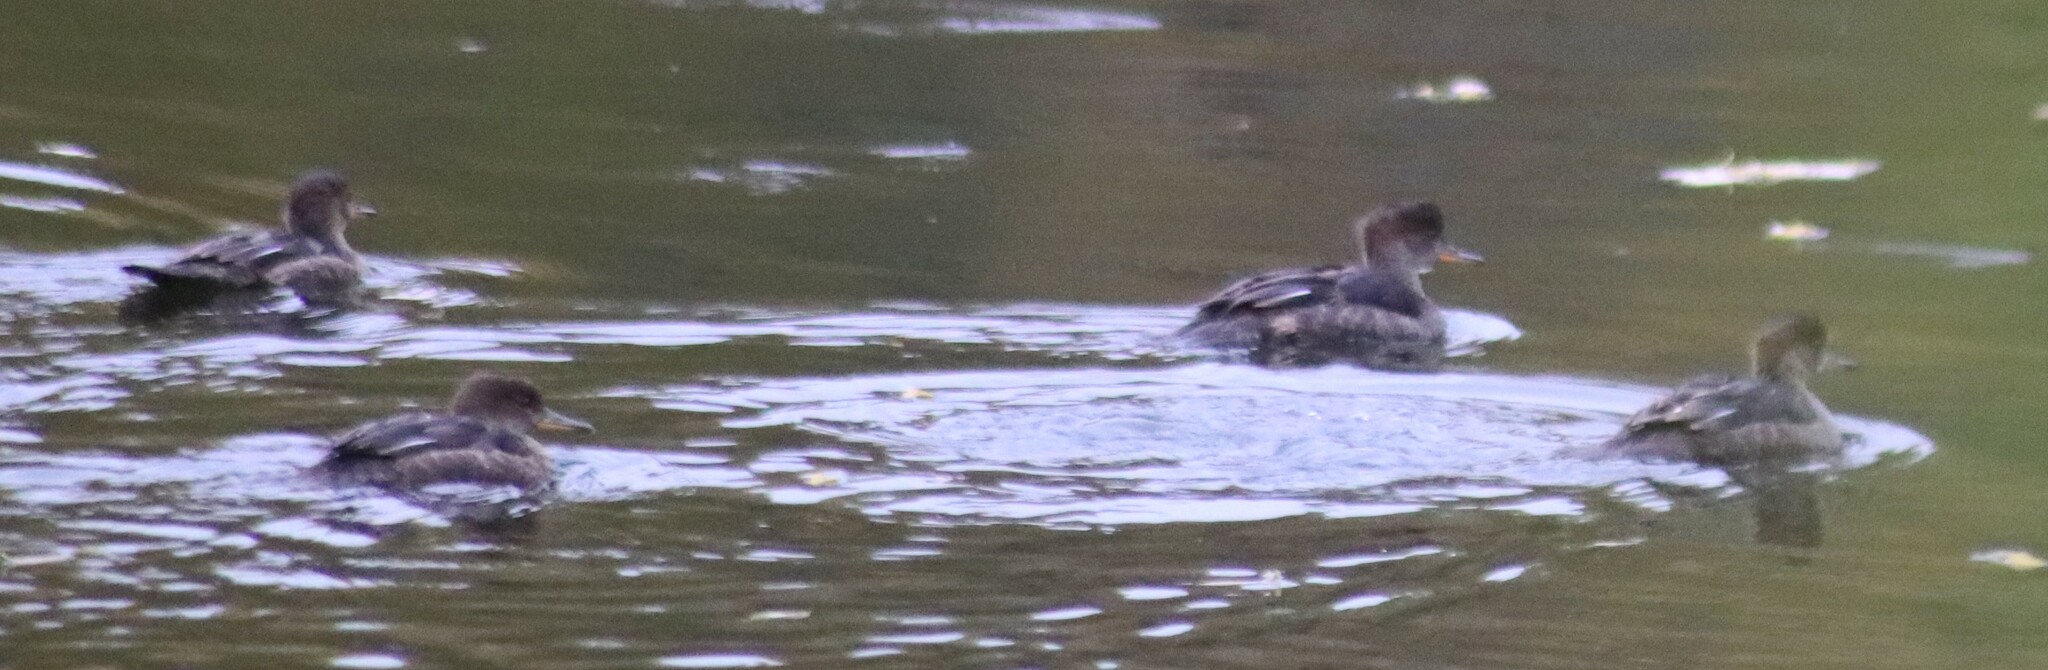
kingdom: Animalia
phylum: Chordata
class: Aves
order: Anseriformes
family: Anatidae
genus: Lophodytes
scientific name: Lophodytes cucullatus
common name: Hooded merganser
